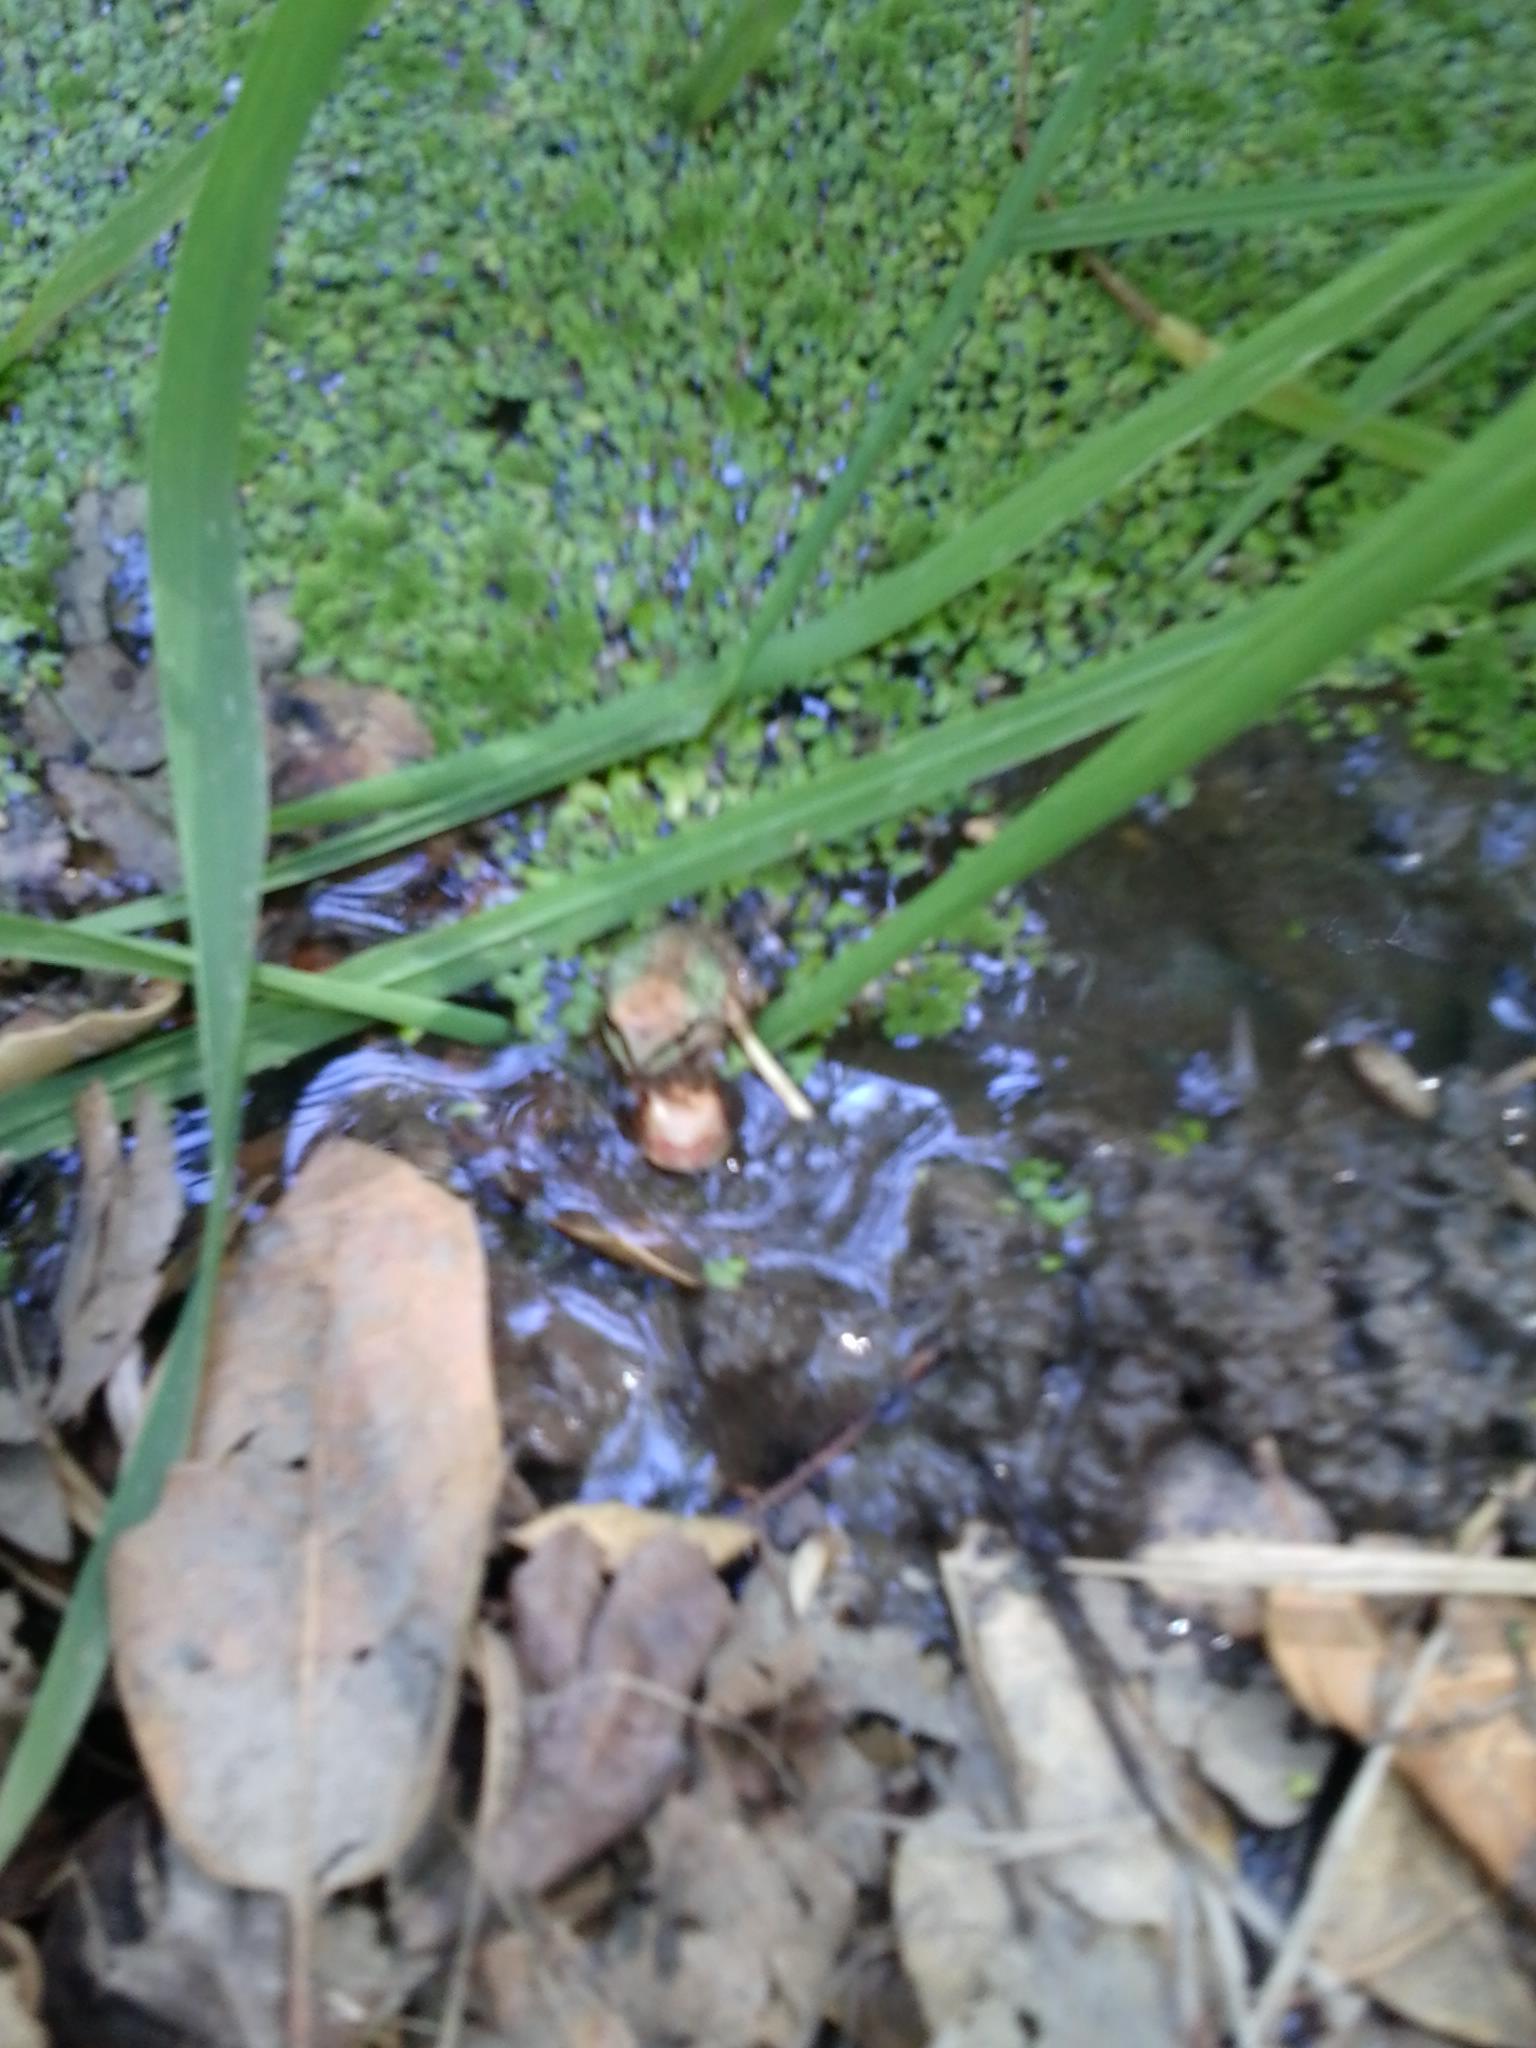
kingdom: Animalia
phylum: Chordata
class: Amphibia
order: Anura
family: Hylidae
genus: Pseudacris
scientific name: Pseudacris regilla
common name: Pacific chorus frog
